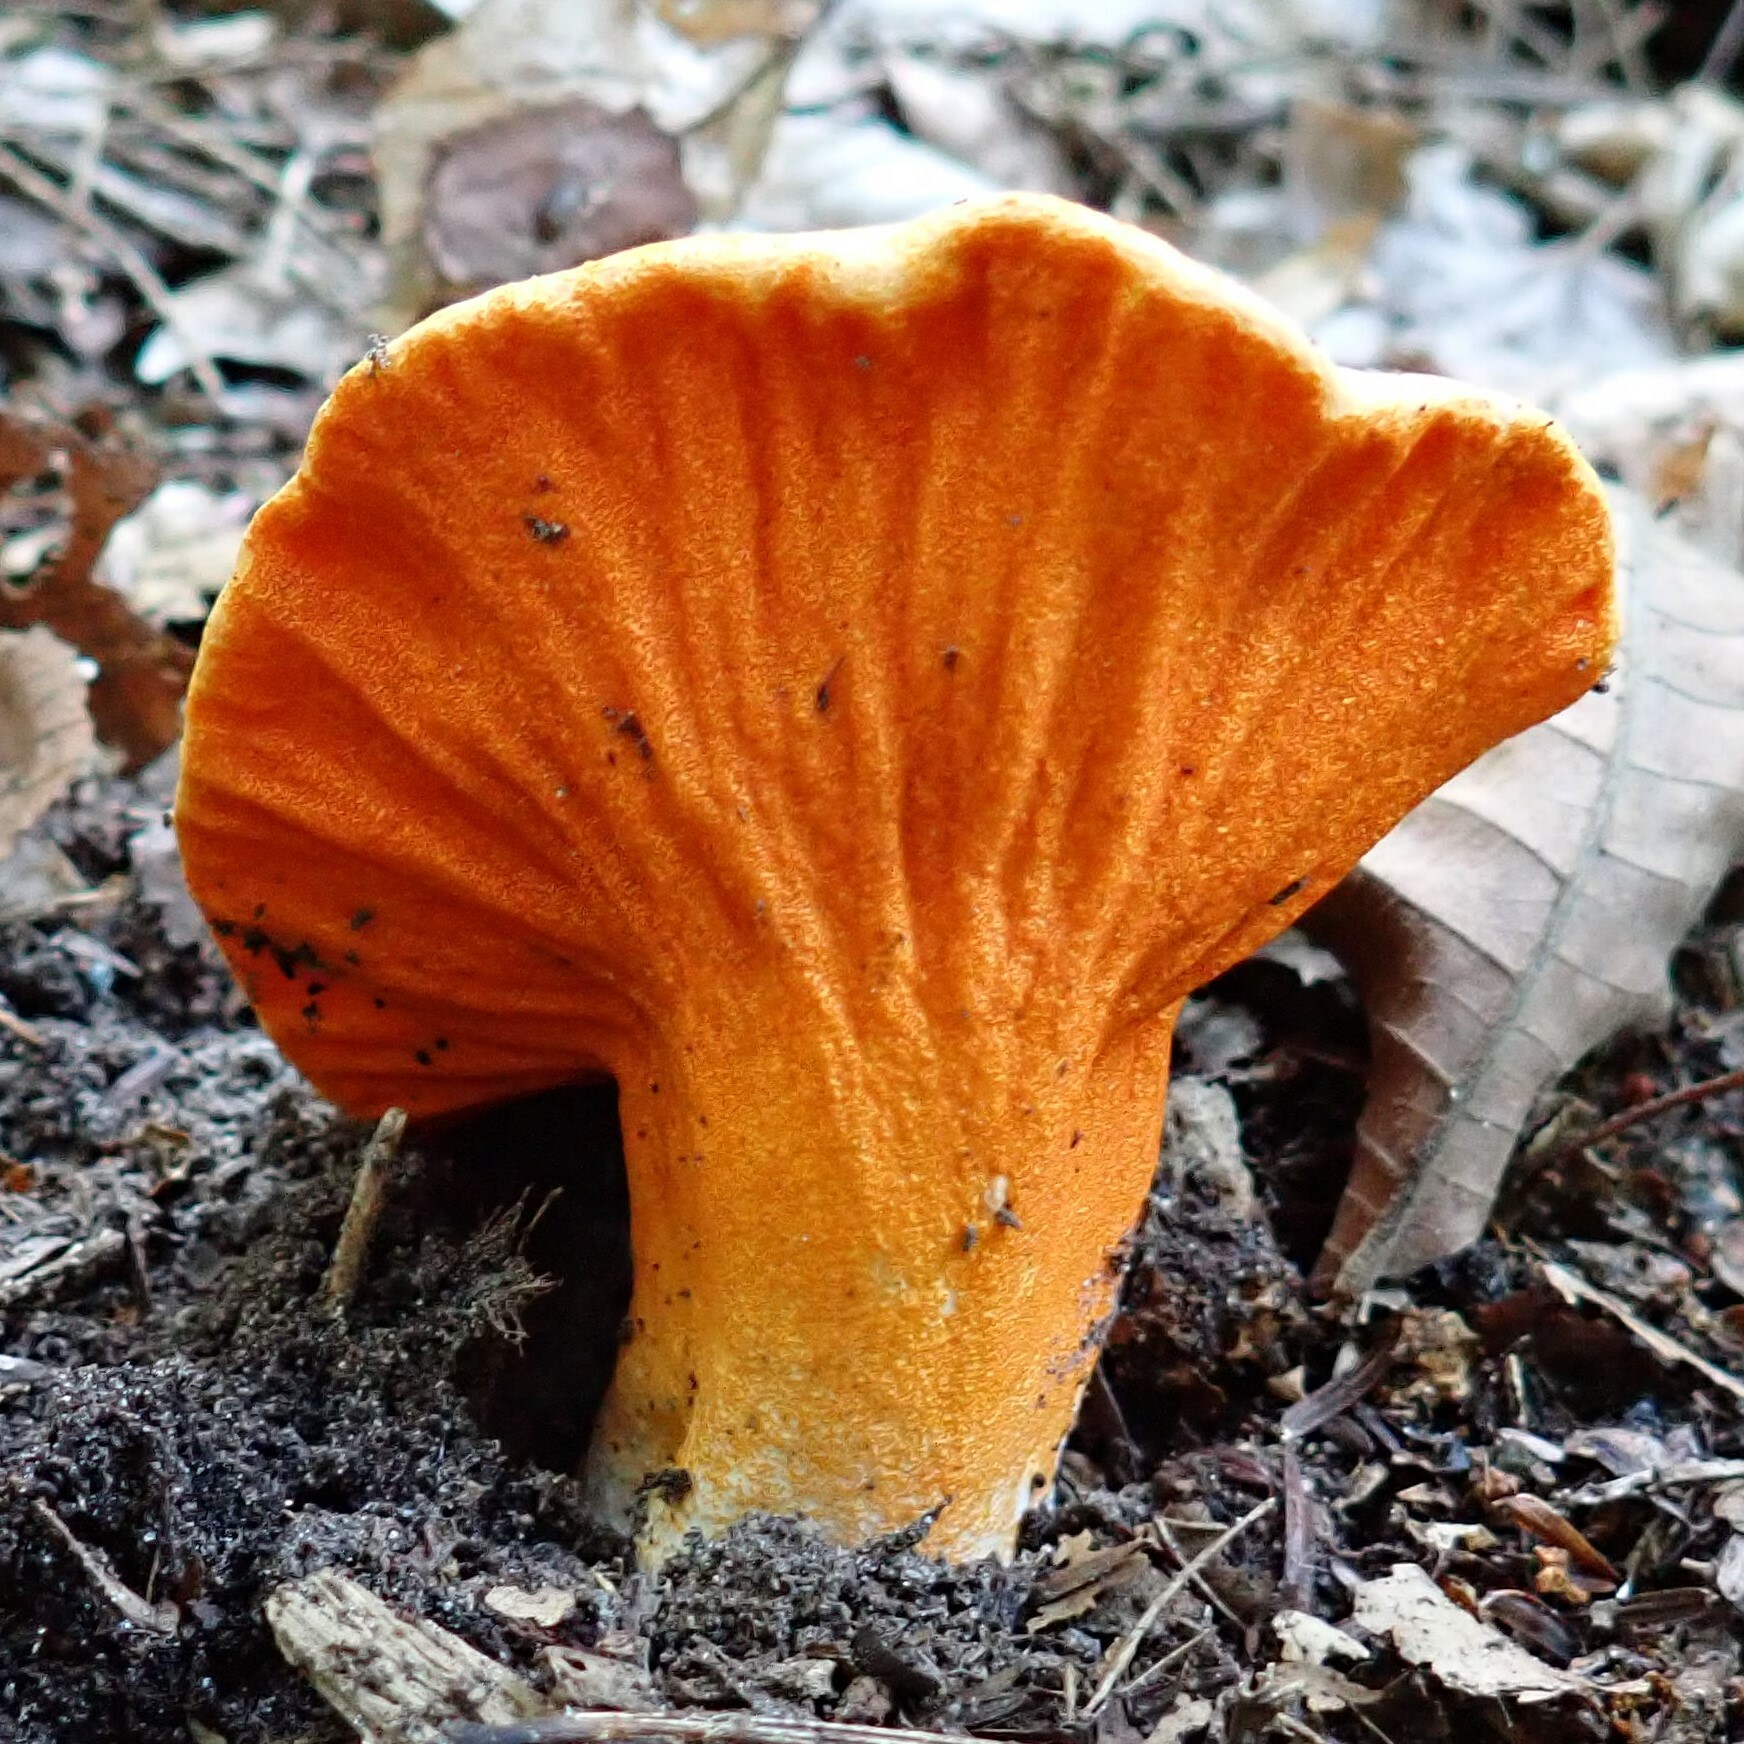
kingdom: Fungi
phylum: Ascomycota
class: Sordariomycetes
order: Hypocreales
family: Hypocreaceae
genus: Hypomyces
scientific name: Hypomyces lactifluorum
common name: Lobster mushroom
